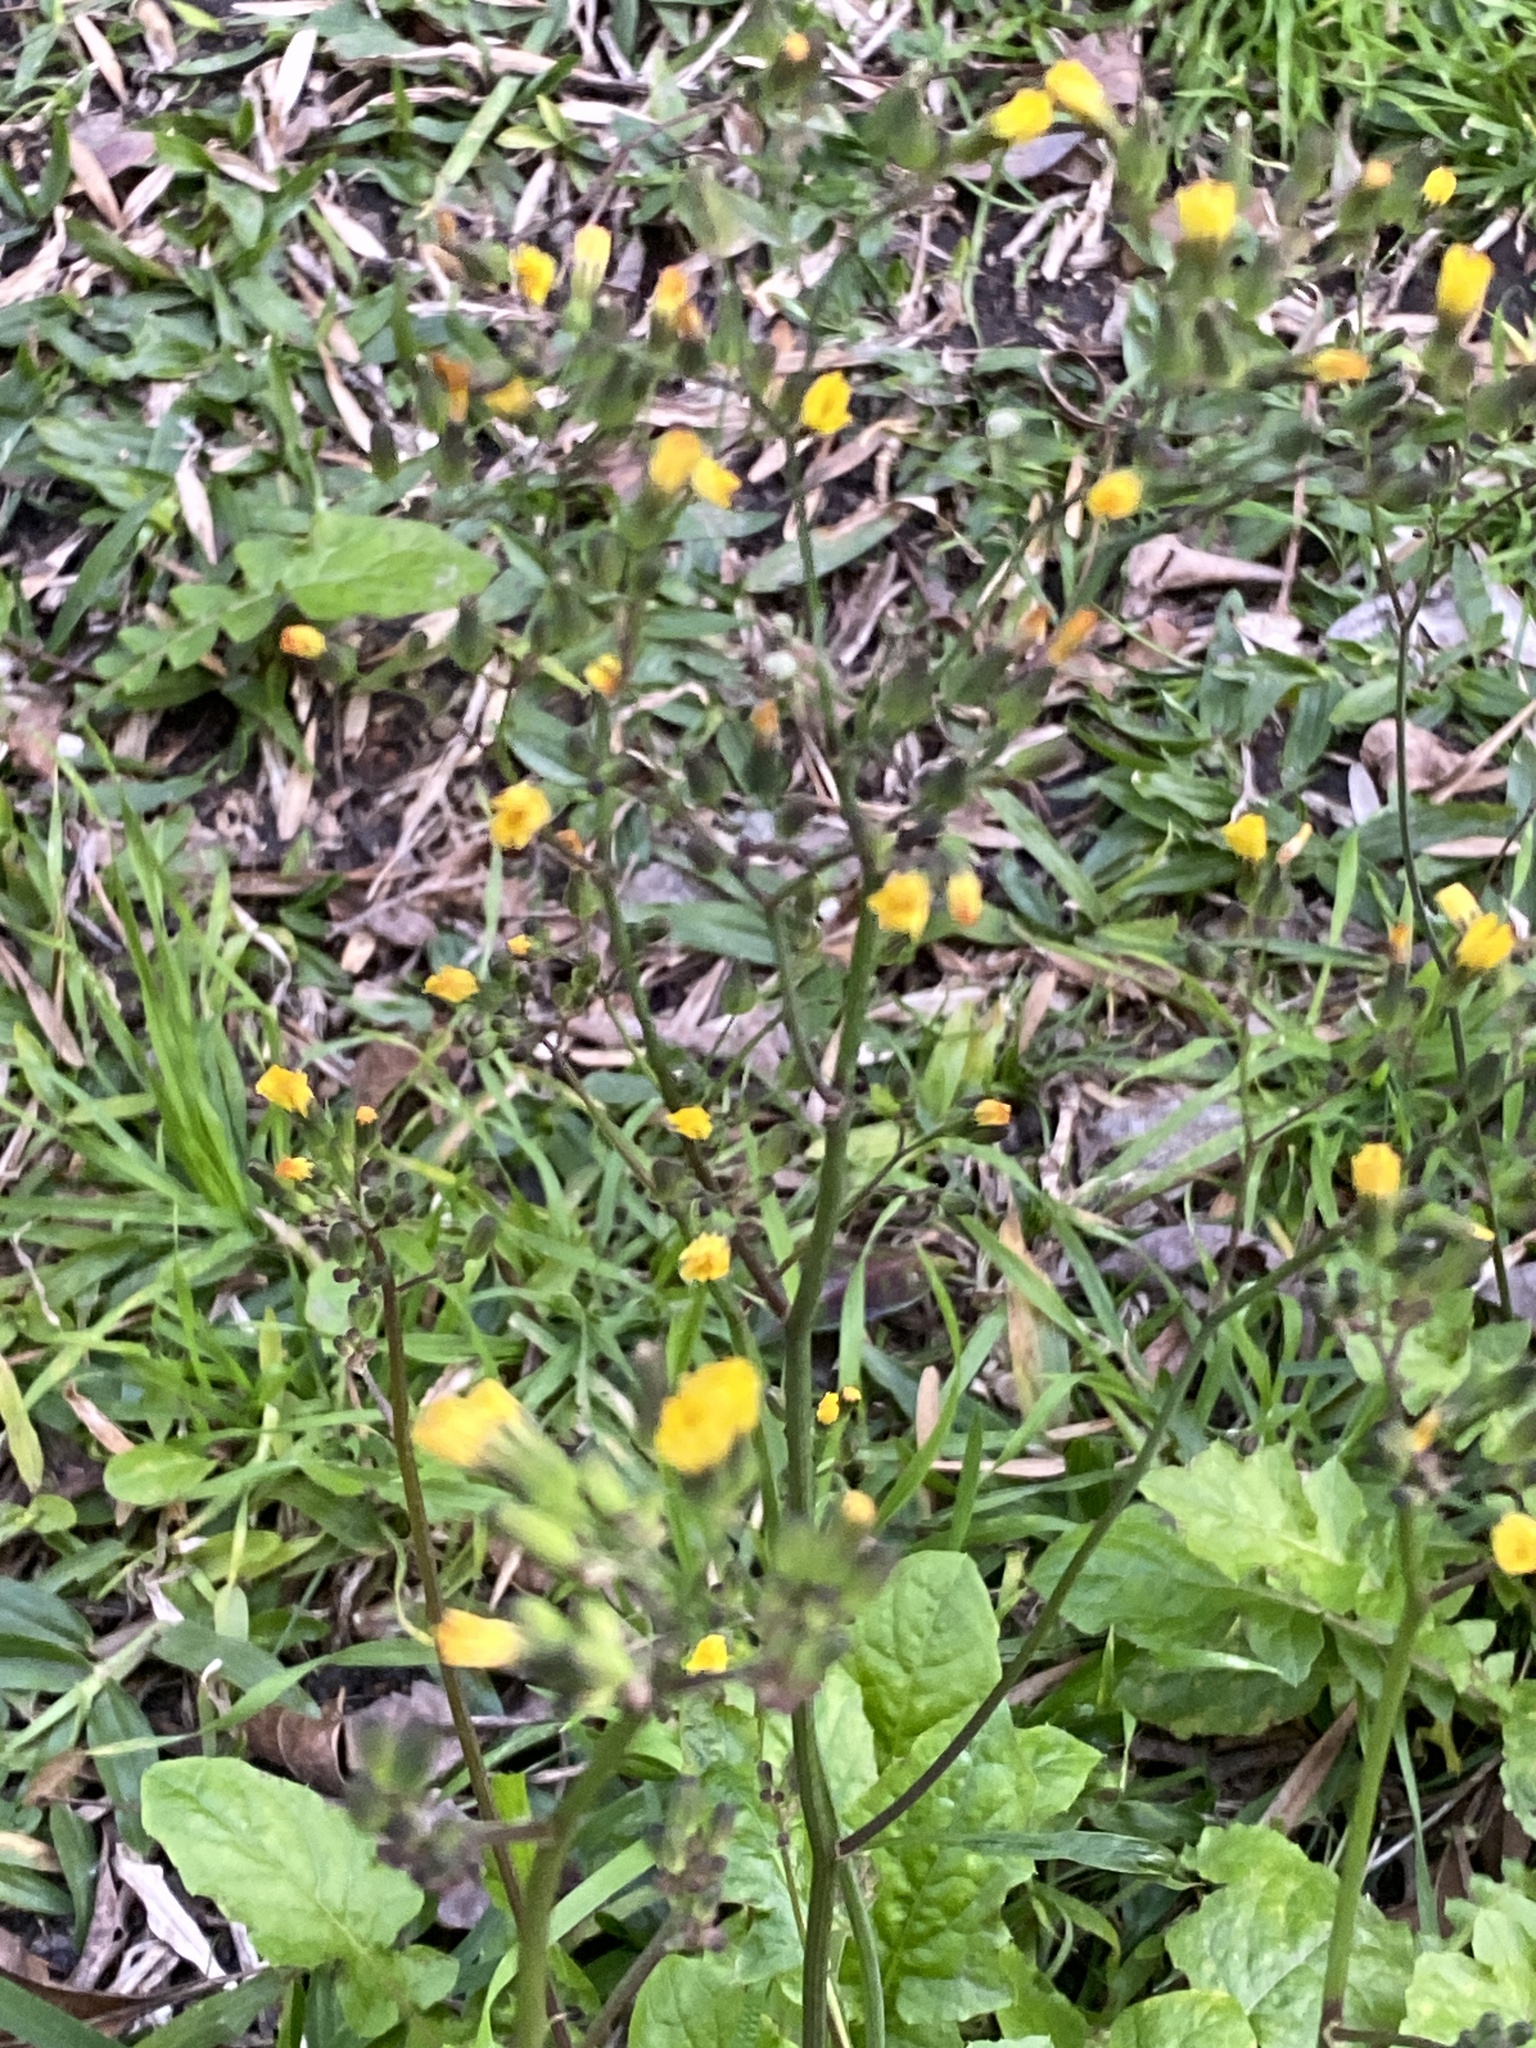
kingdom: Plantae
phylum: Tracheophyta
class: Magnoliopsida
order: Asterales
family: Asteraceae
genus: Youngia
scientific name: Youngia japonica
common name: Oriental false hawksbeard
